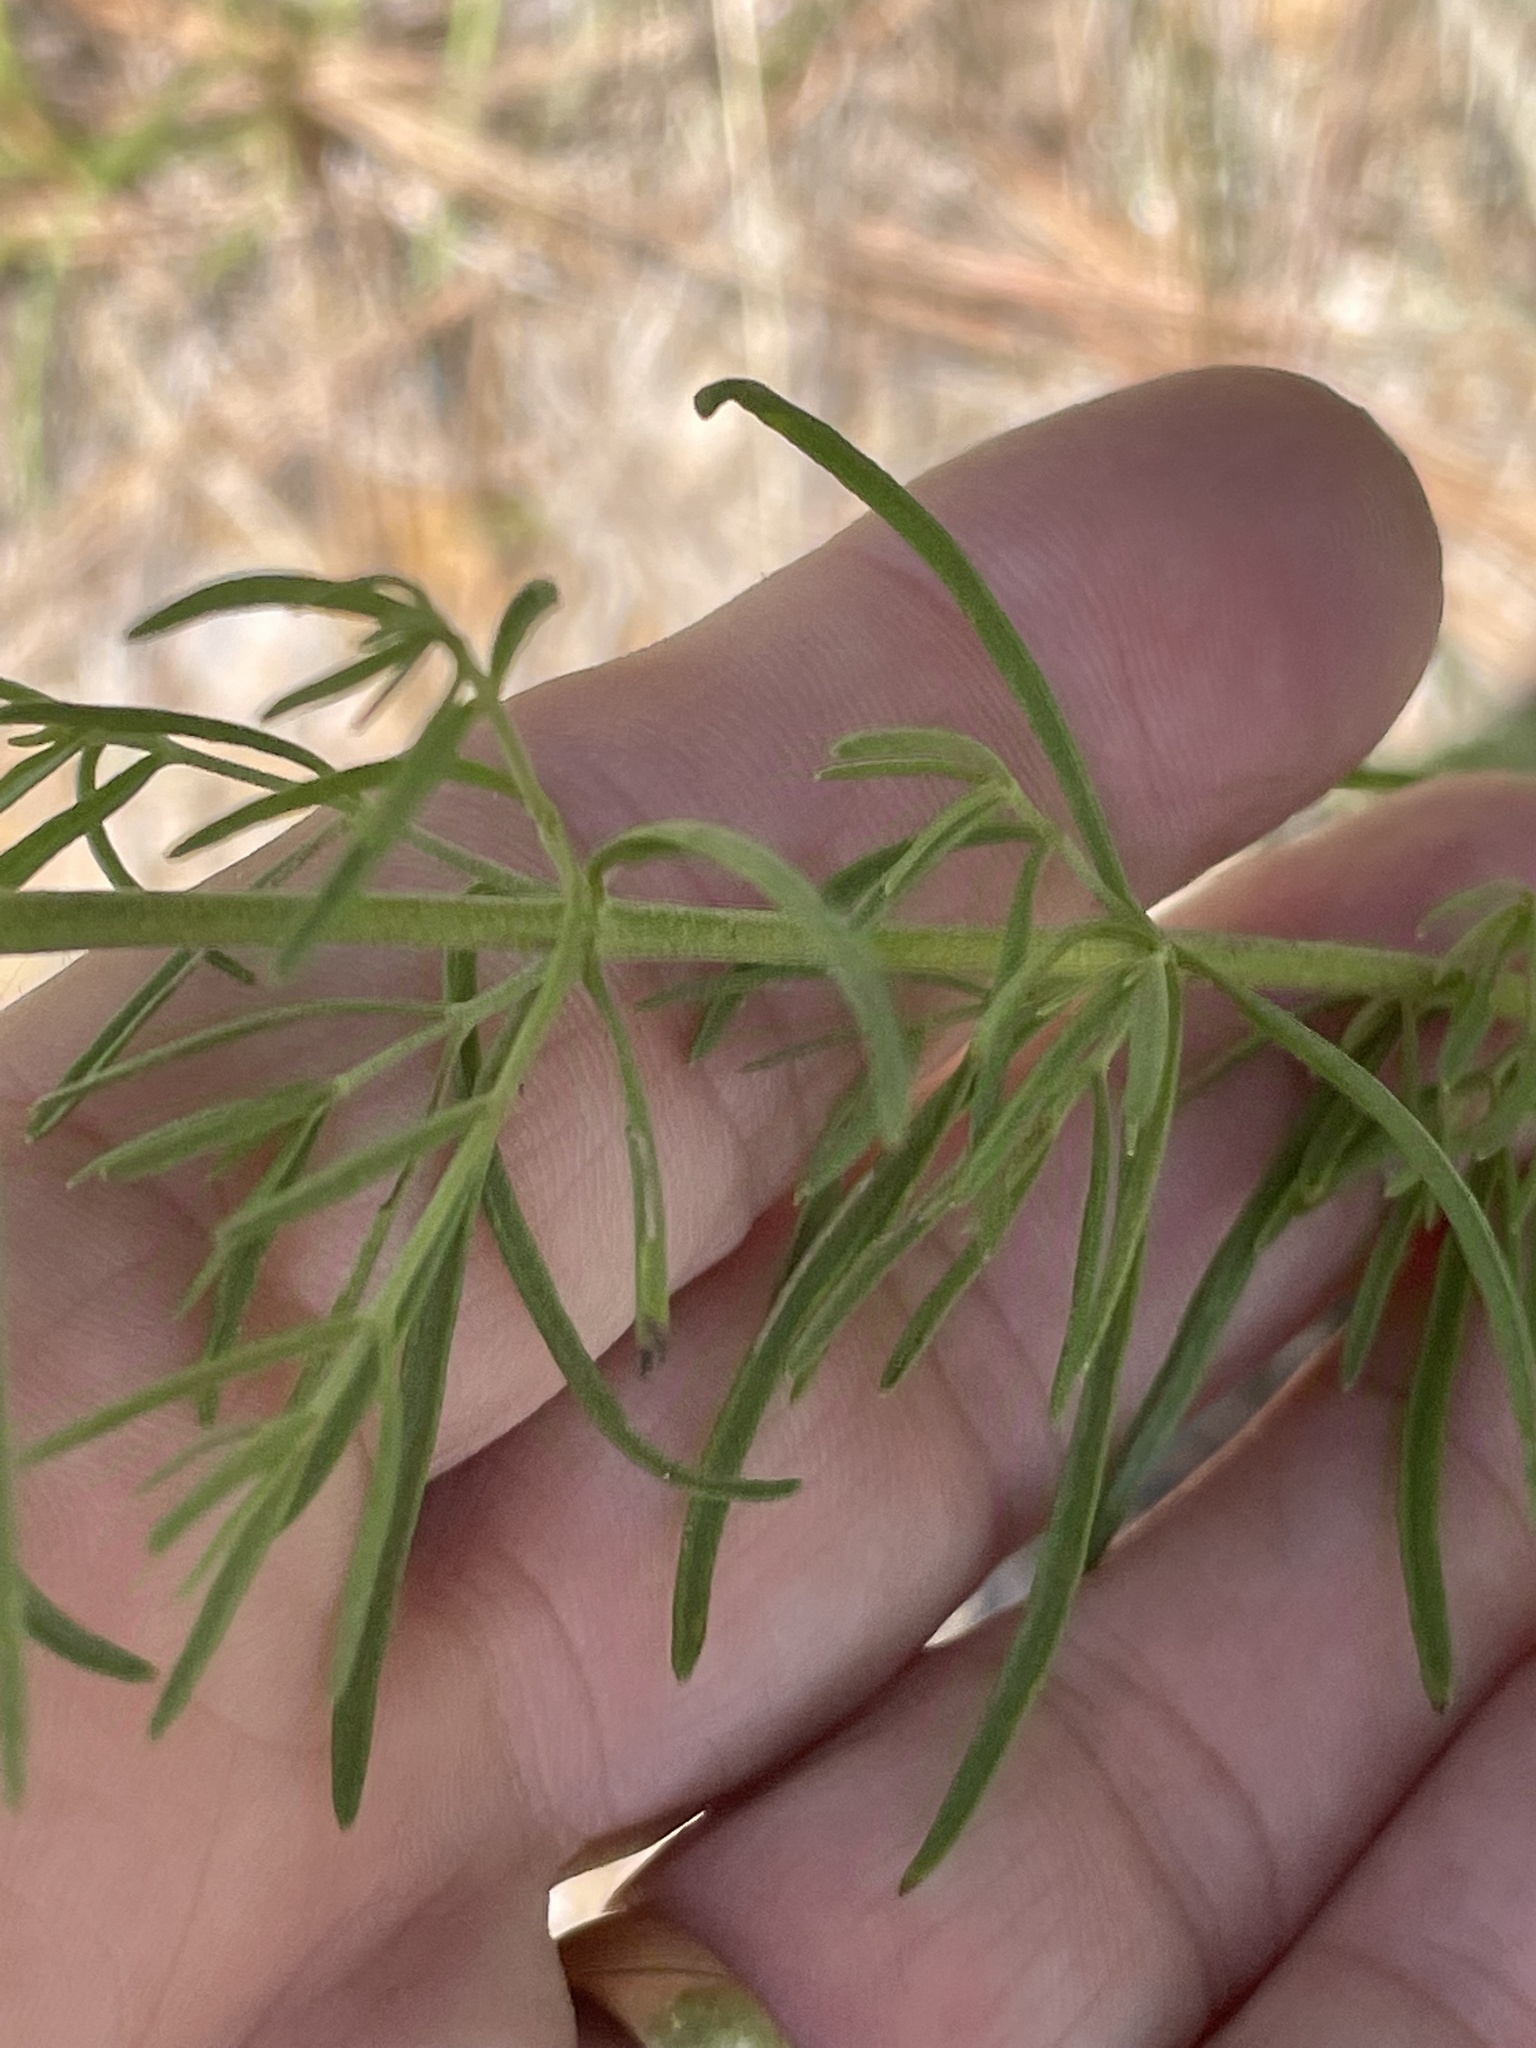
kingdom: Plantae
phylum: Tracheophyta
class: Magnoliopsida
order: Asterales
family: Asteraceae
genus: Eupatorium
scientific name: Eupatorium hyssopifolium
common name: Hyssop-leaf thoroughwort
